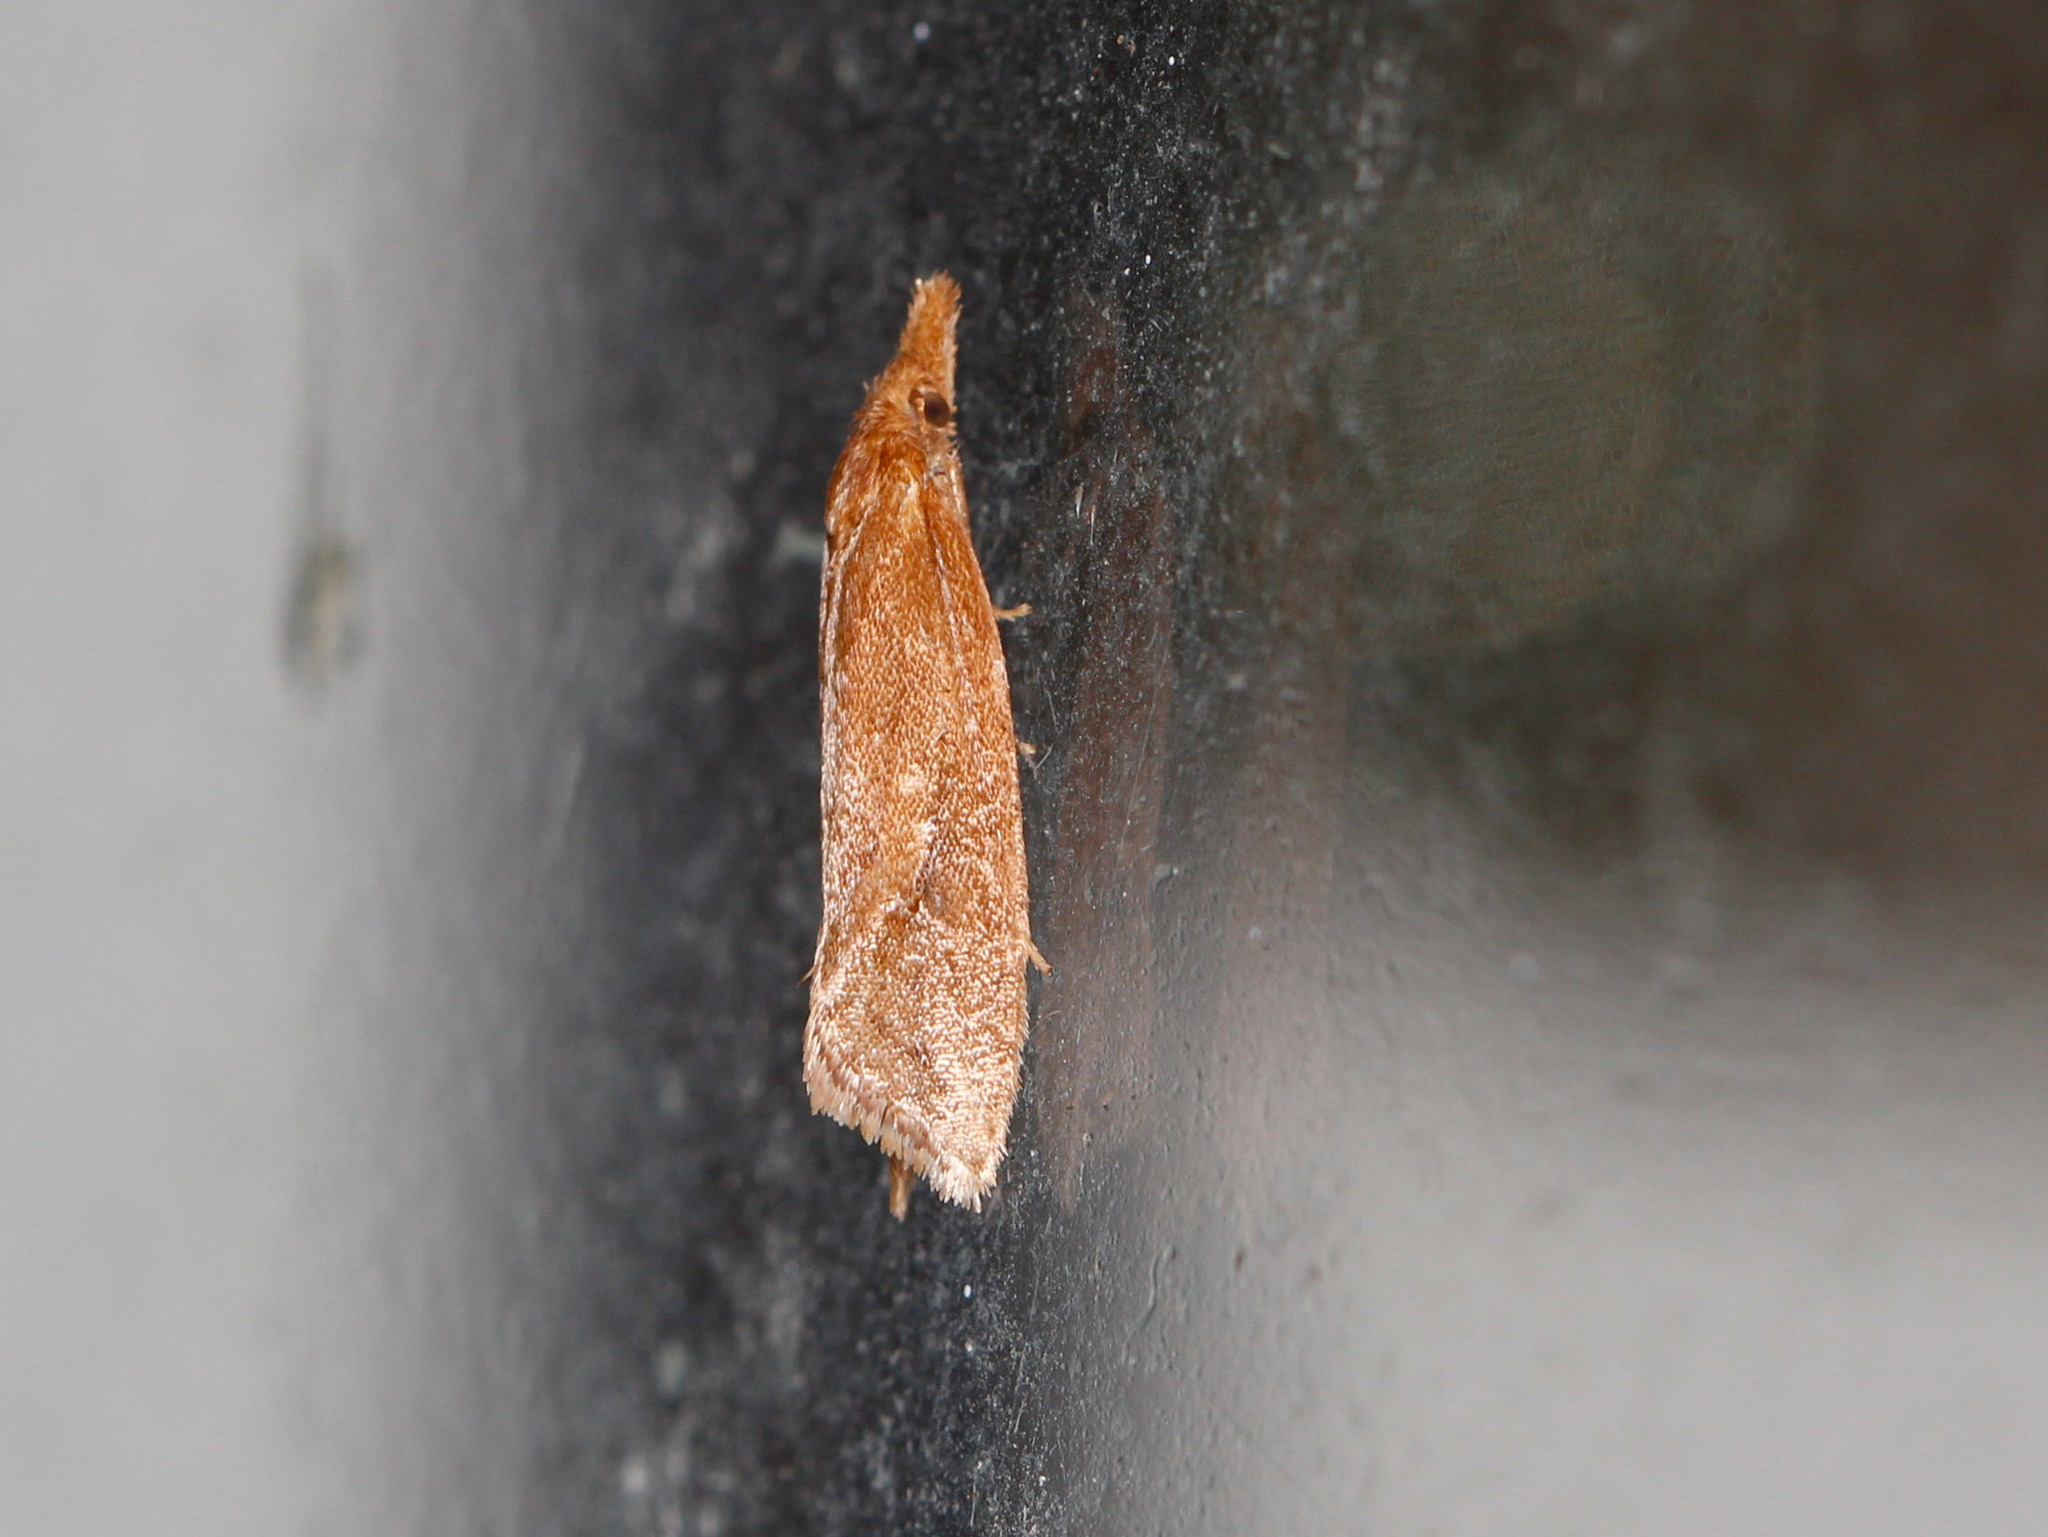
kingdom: Animalia
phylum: Arthropoda
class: Insecta
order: Lepidoptera
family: Tortricidae
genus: Aethes
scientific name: Aethes biscana
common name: Reddish aethes
